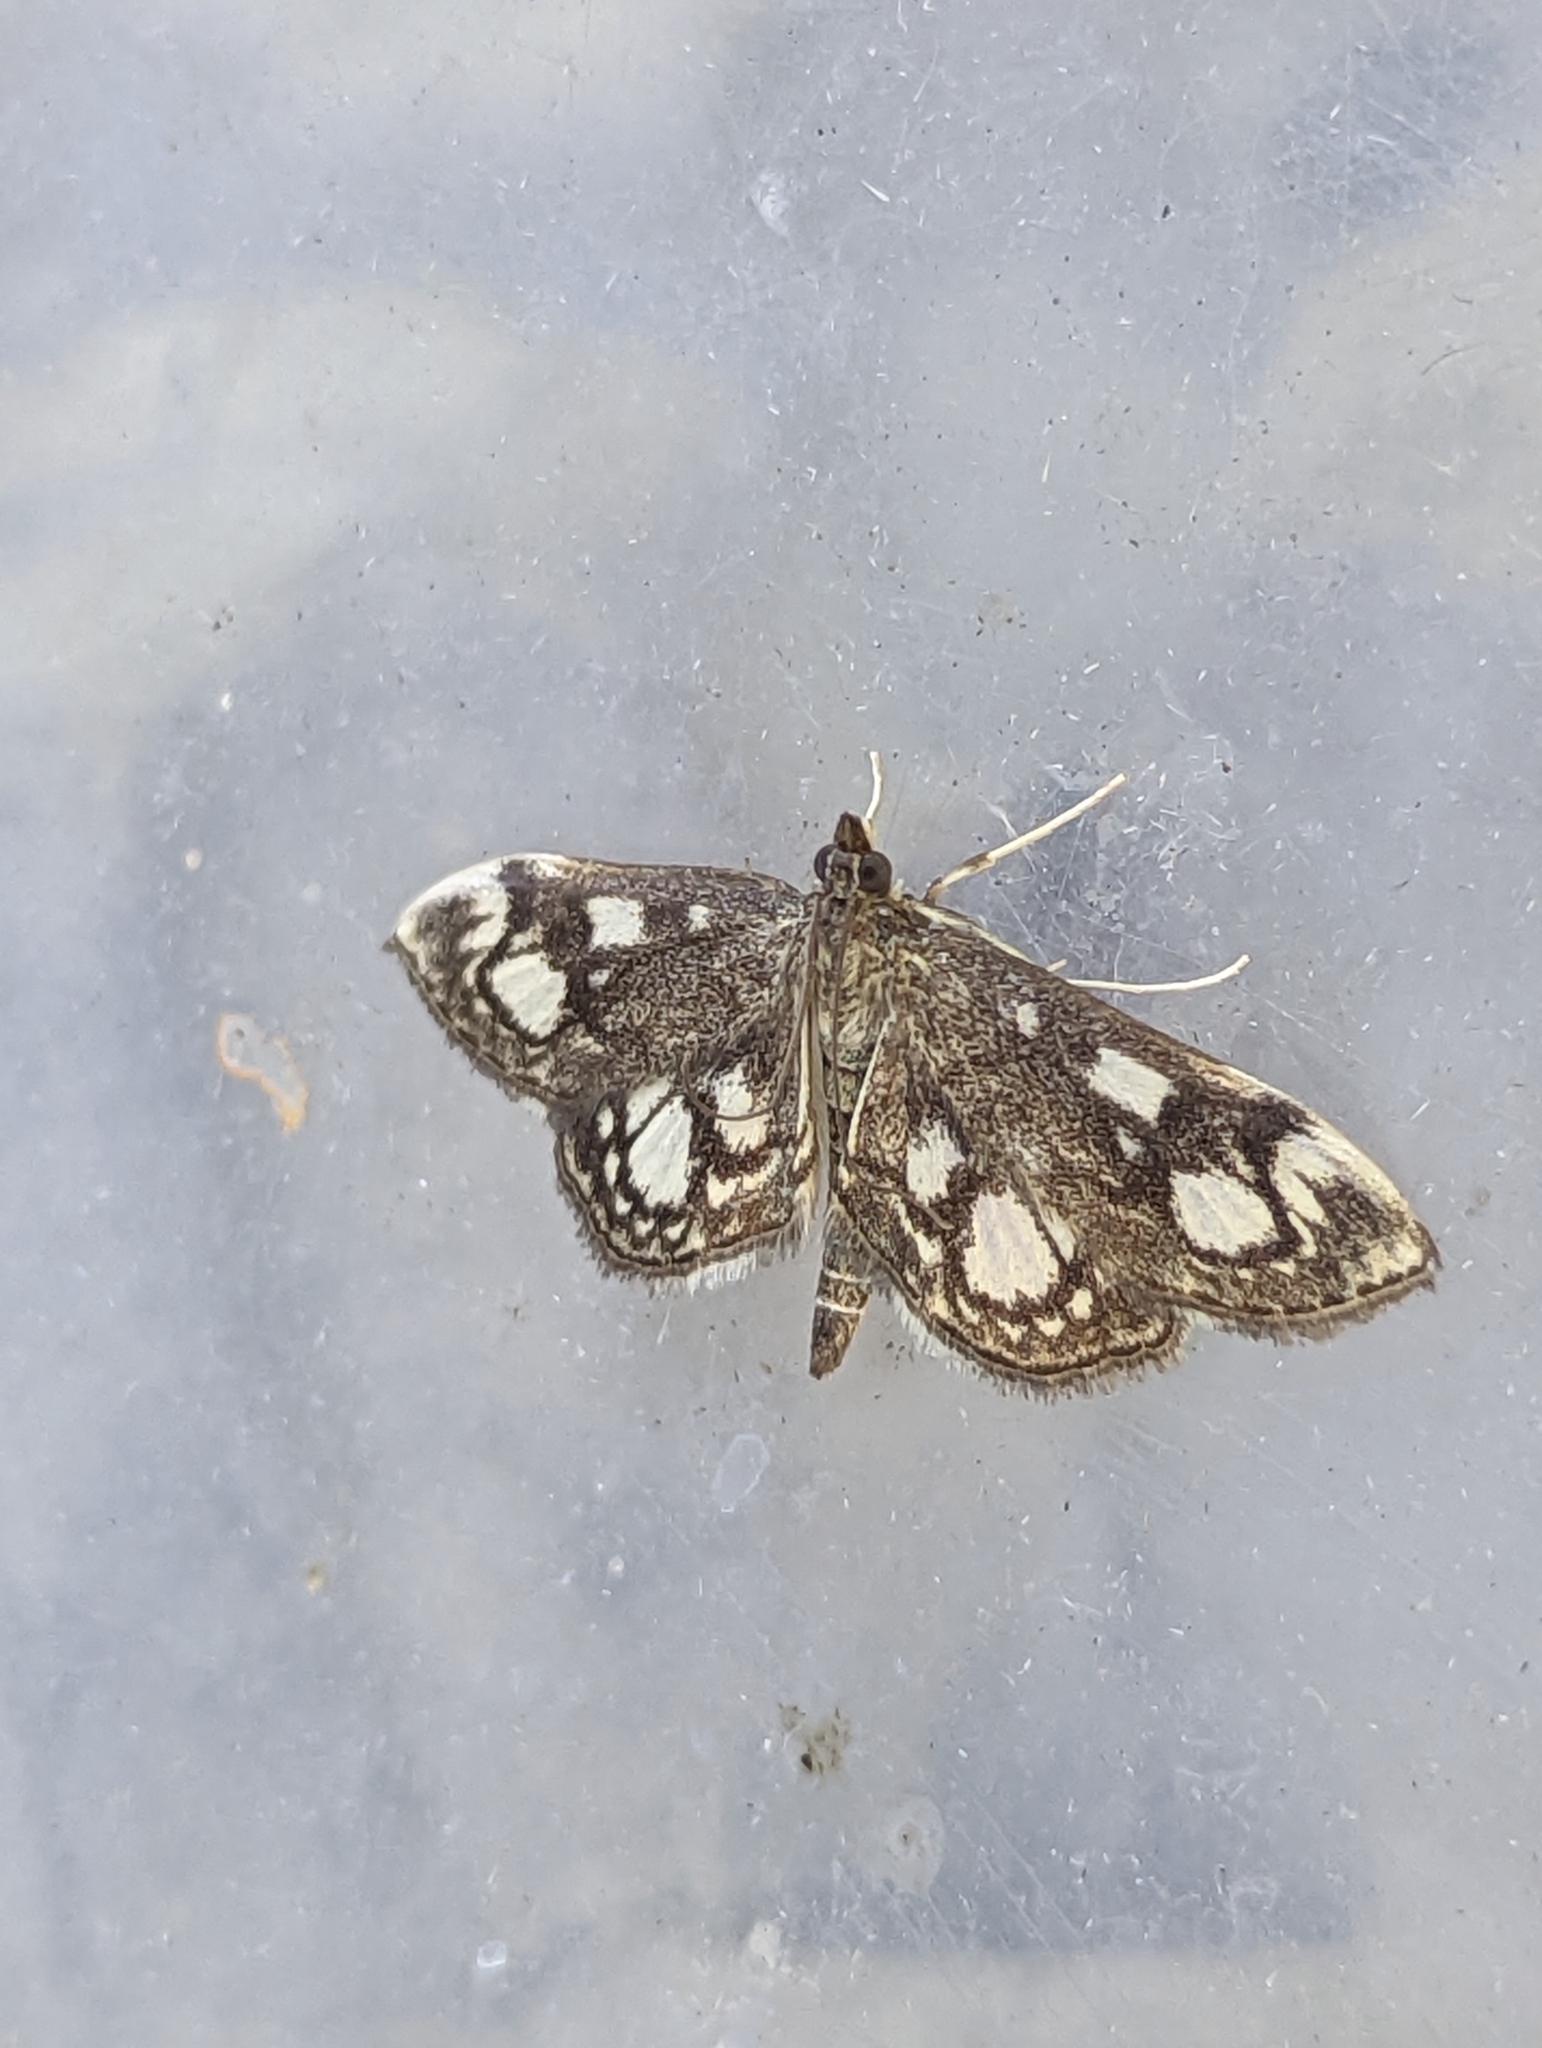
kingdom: Animalia
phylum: Arthropoda
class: Insecta
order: Lepidoptera
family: Crambidae
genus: Anania
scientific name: Anania coronata
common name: Elder pearl
